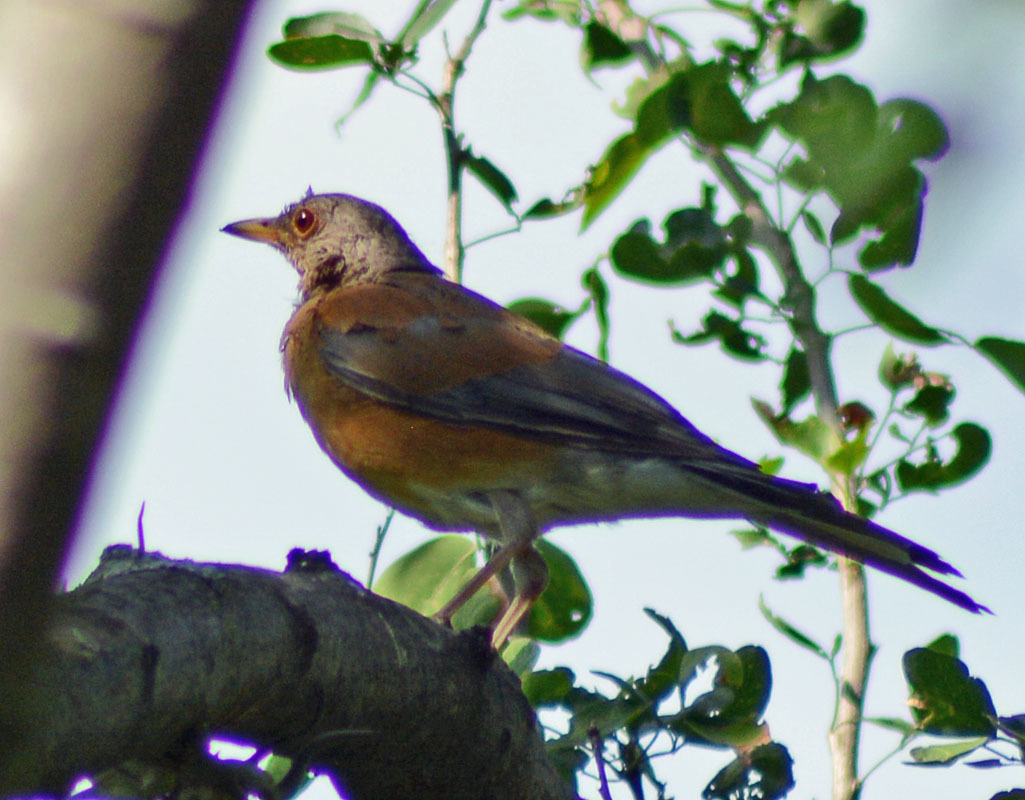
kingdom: Animalia
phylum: Chordata
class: Aves
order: Passeriformes
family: Turdidae
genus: Turdus
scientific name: Turdus rufopalliatus
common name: Rufous-backed robin
